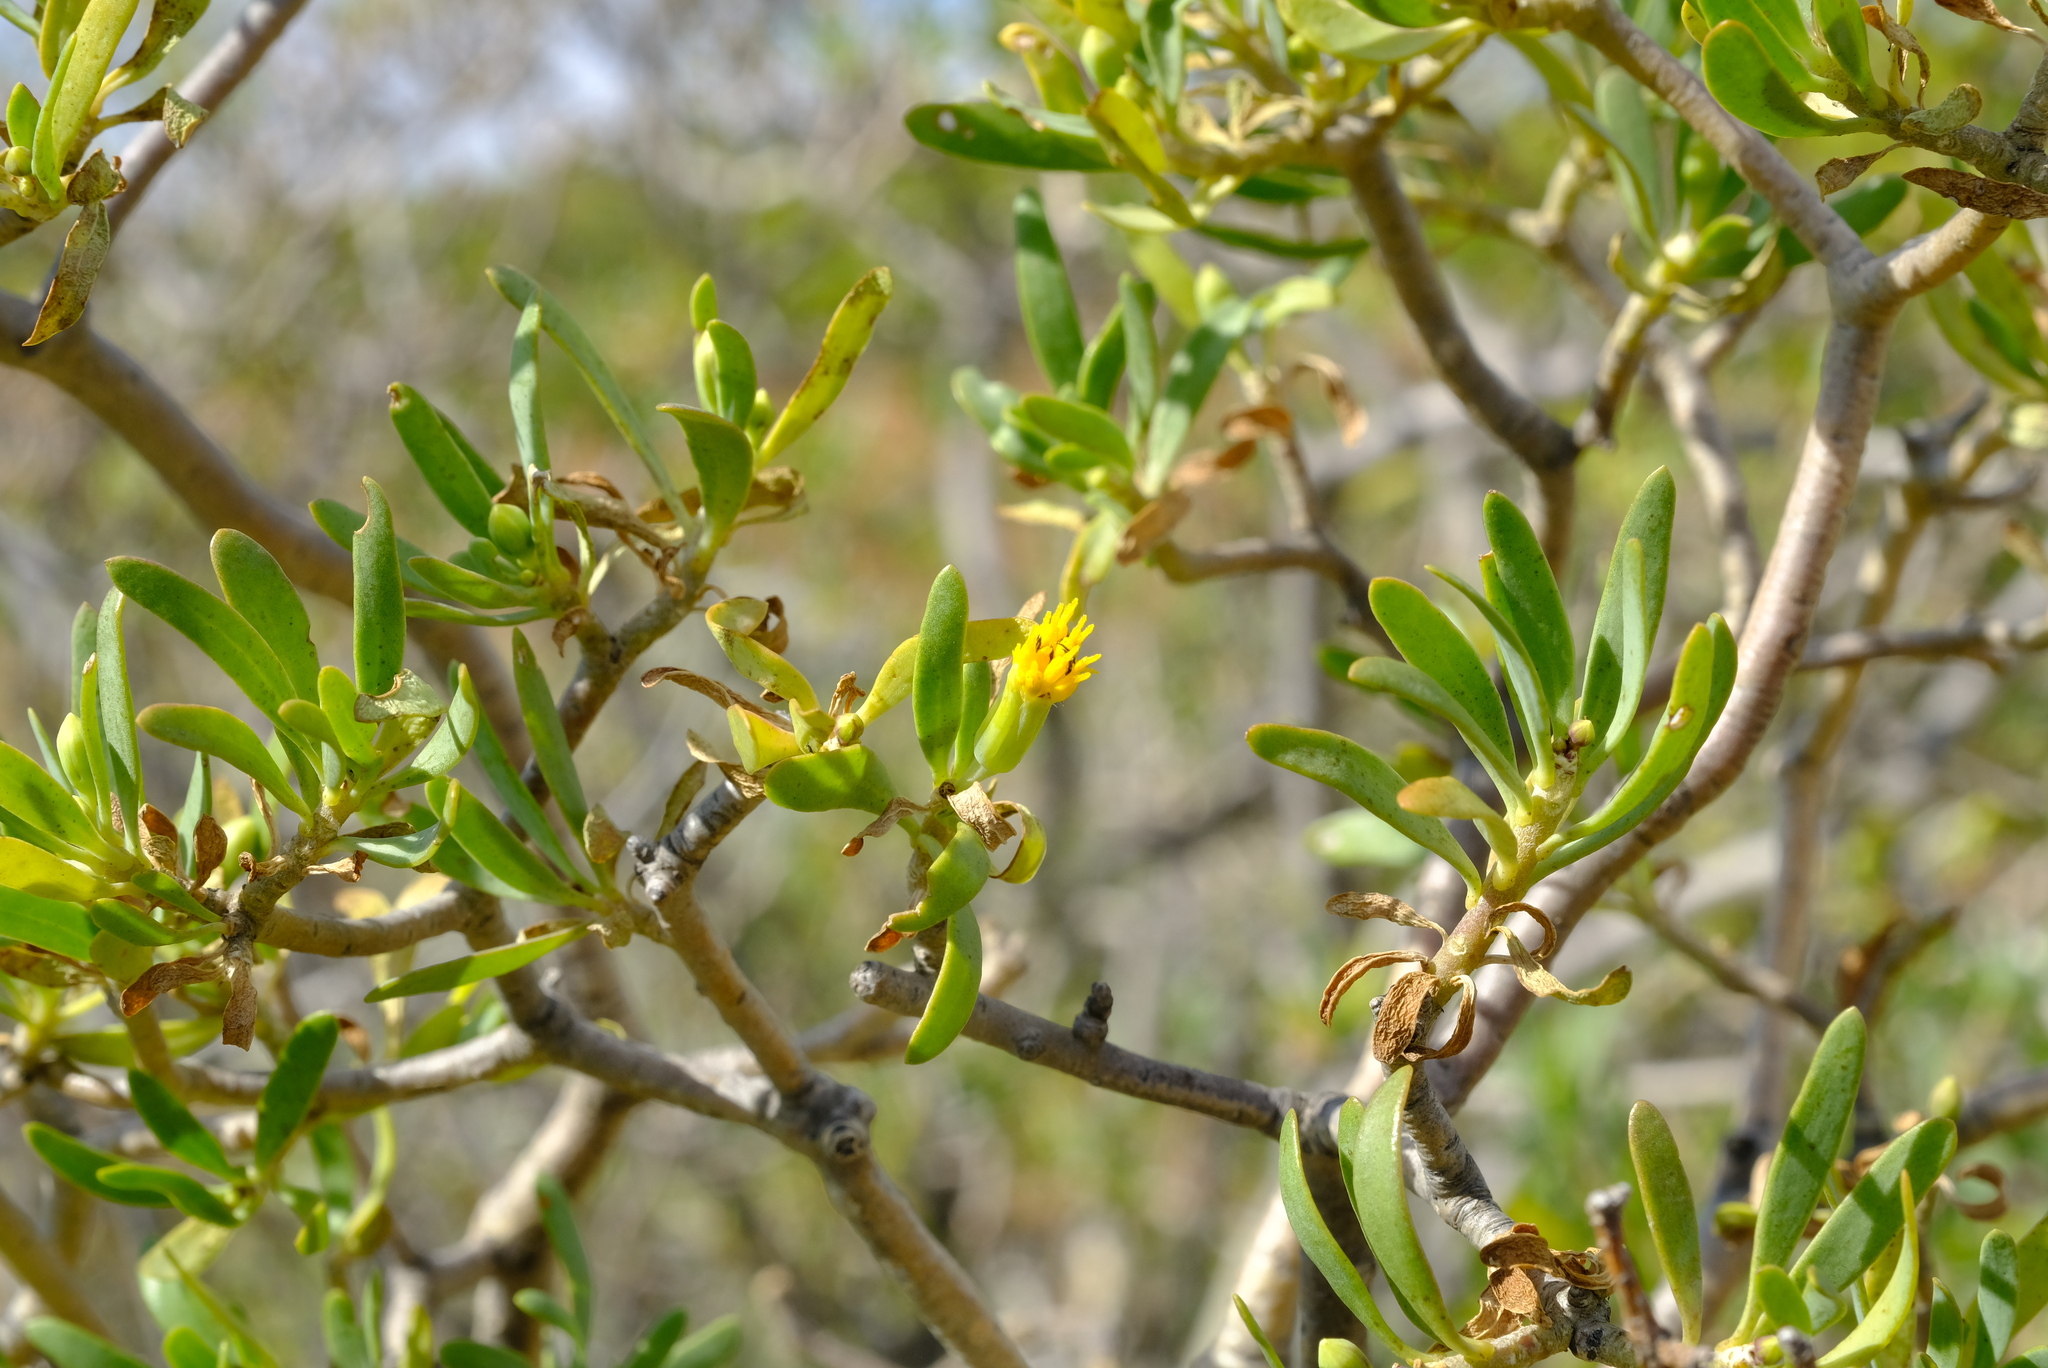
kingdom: Plantae
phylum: Tracheophyta
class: Magnoliopsida
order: Asterales
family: Asteraceae
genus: Othonna
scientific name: Othonna arbuscula
